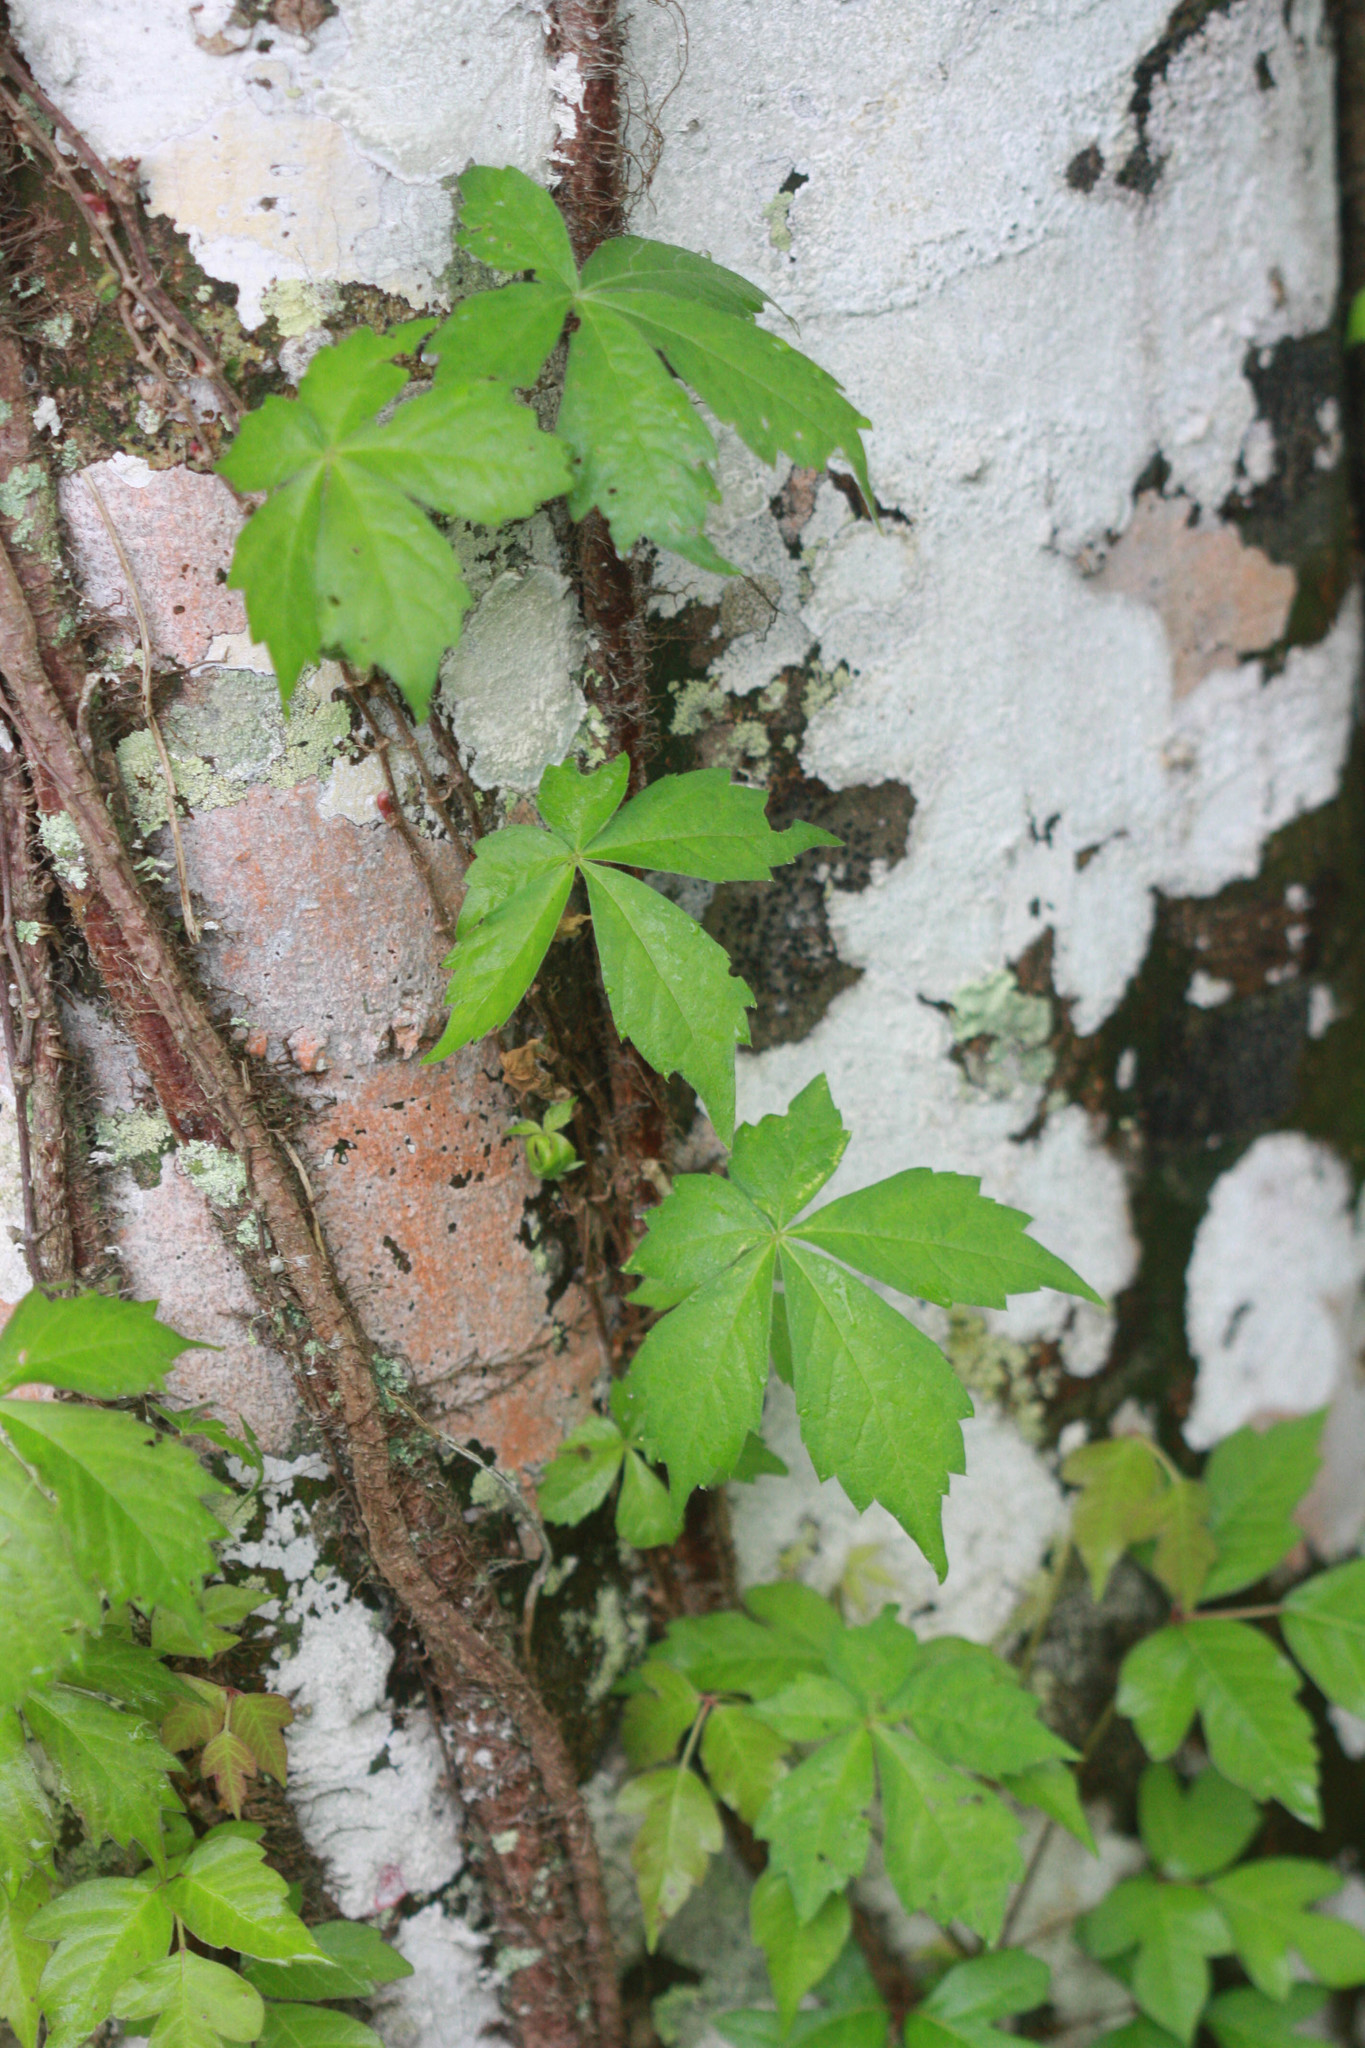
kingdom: Plantae
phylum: Tracheophyta
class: Magnoliopsida
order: Vitales
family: Vitaceae
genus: Parthenocissus
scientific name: Parthenocissus quinquefolia
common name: Virginia-creeper
